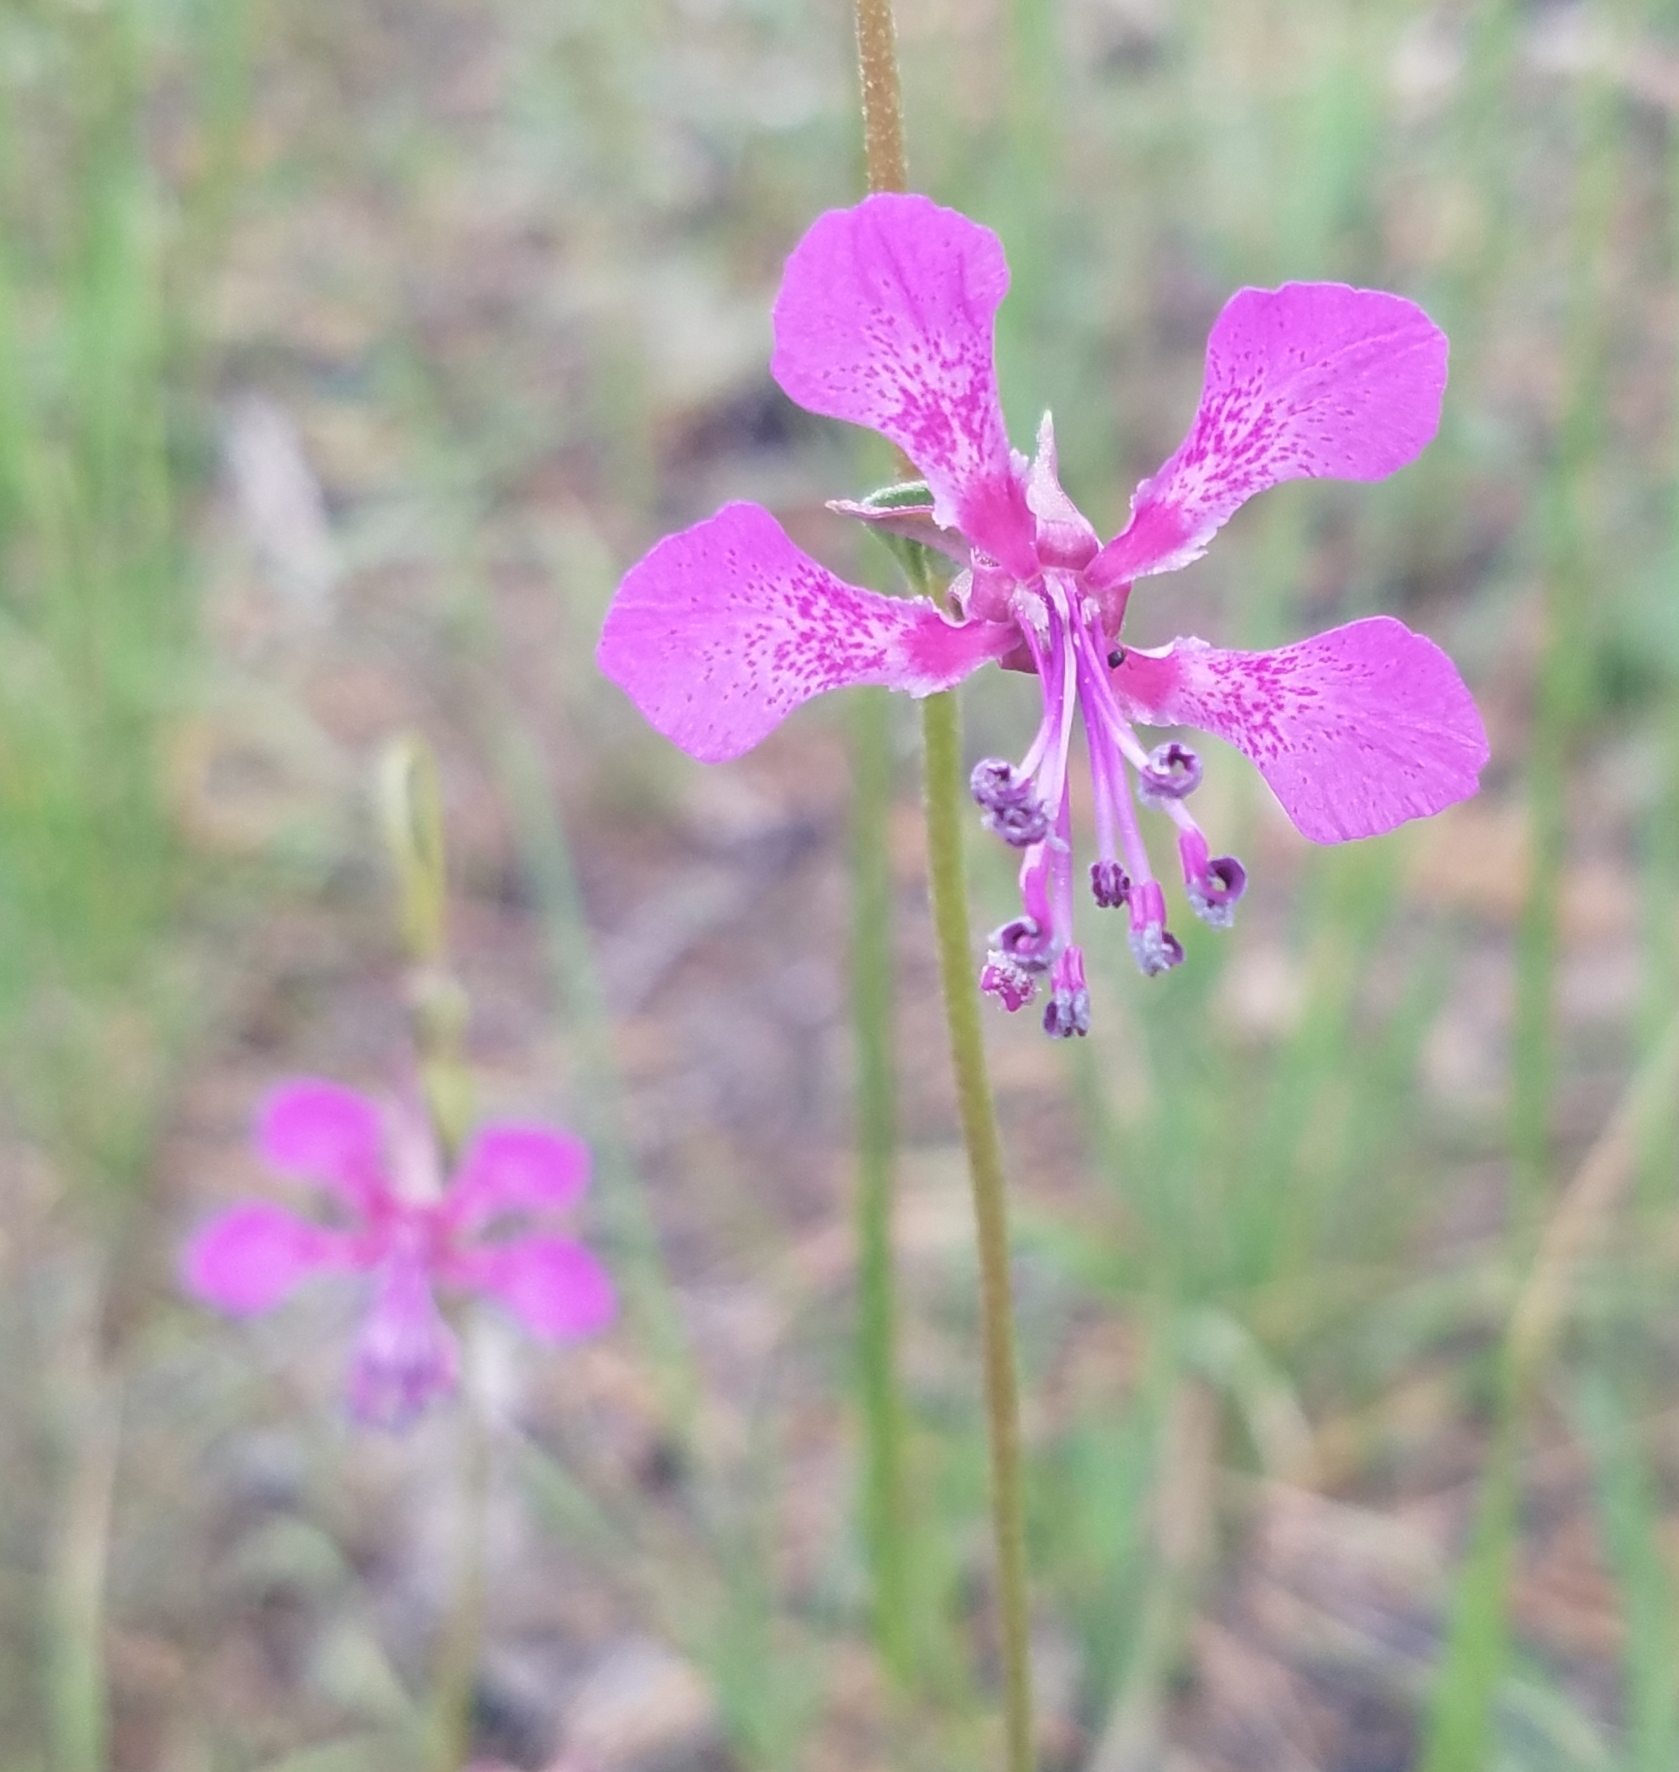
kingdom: Plantae
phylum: Tracheophyta
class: Magnoliopsida
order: Myrtales
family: Onagraceae
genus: Clarkia
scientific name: Clarkia rhomboidea
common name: Broadleaf clarkia
